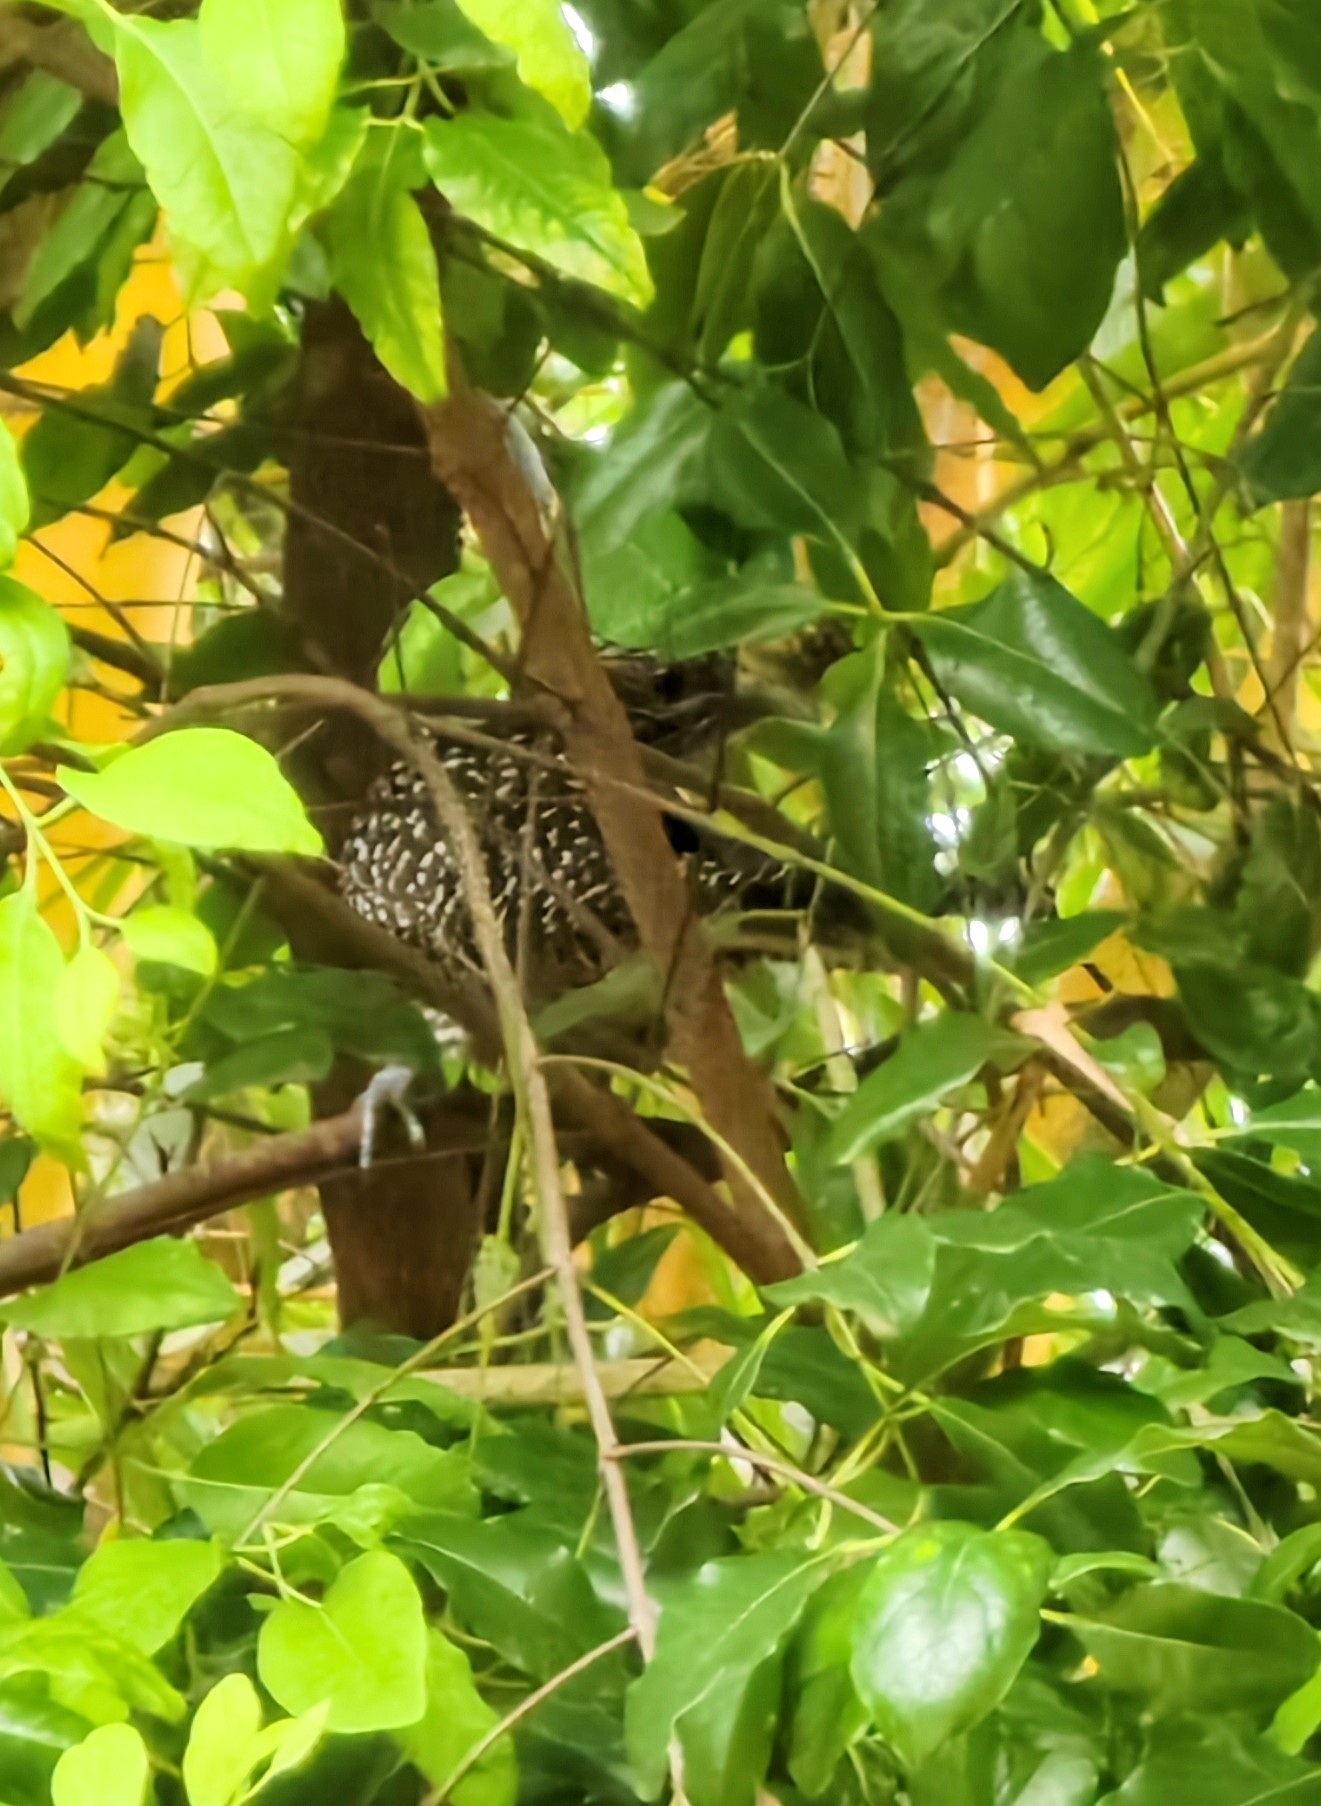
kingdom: Animalia
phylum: Chordata
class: Aves
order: Cuculiformes
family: Cuculidae
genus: Eudynamys
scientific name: Eudynamys scolopaceus
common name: Asian koel
